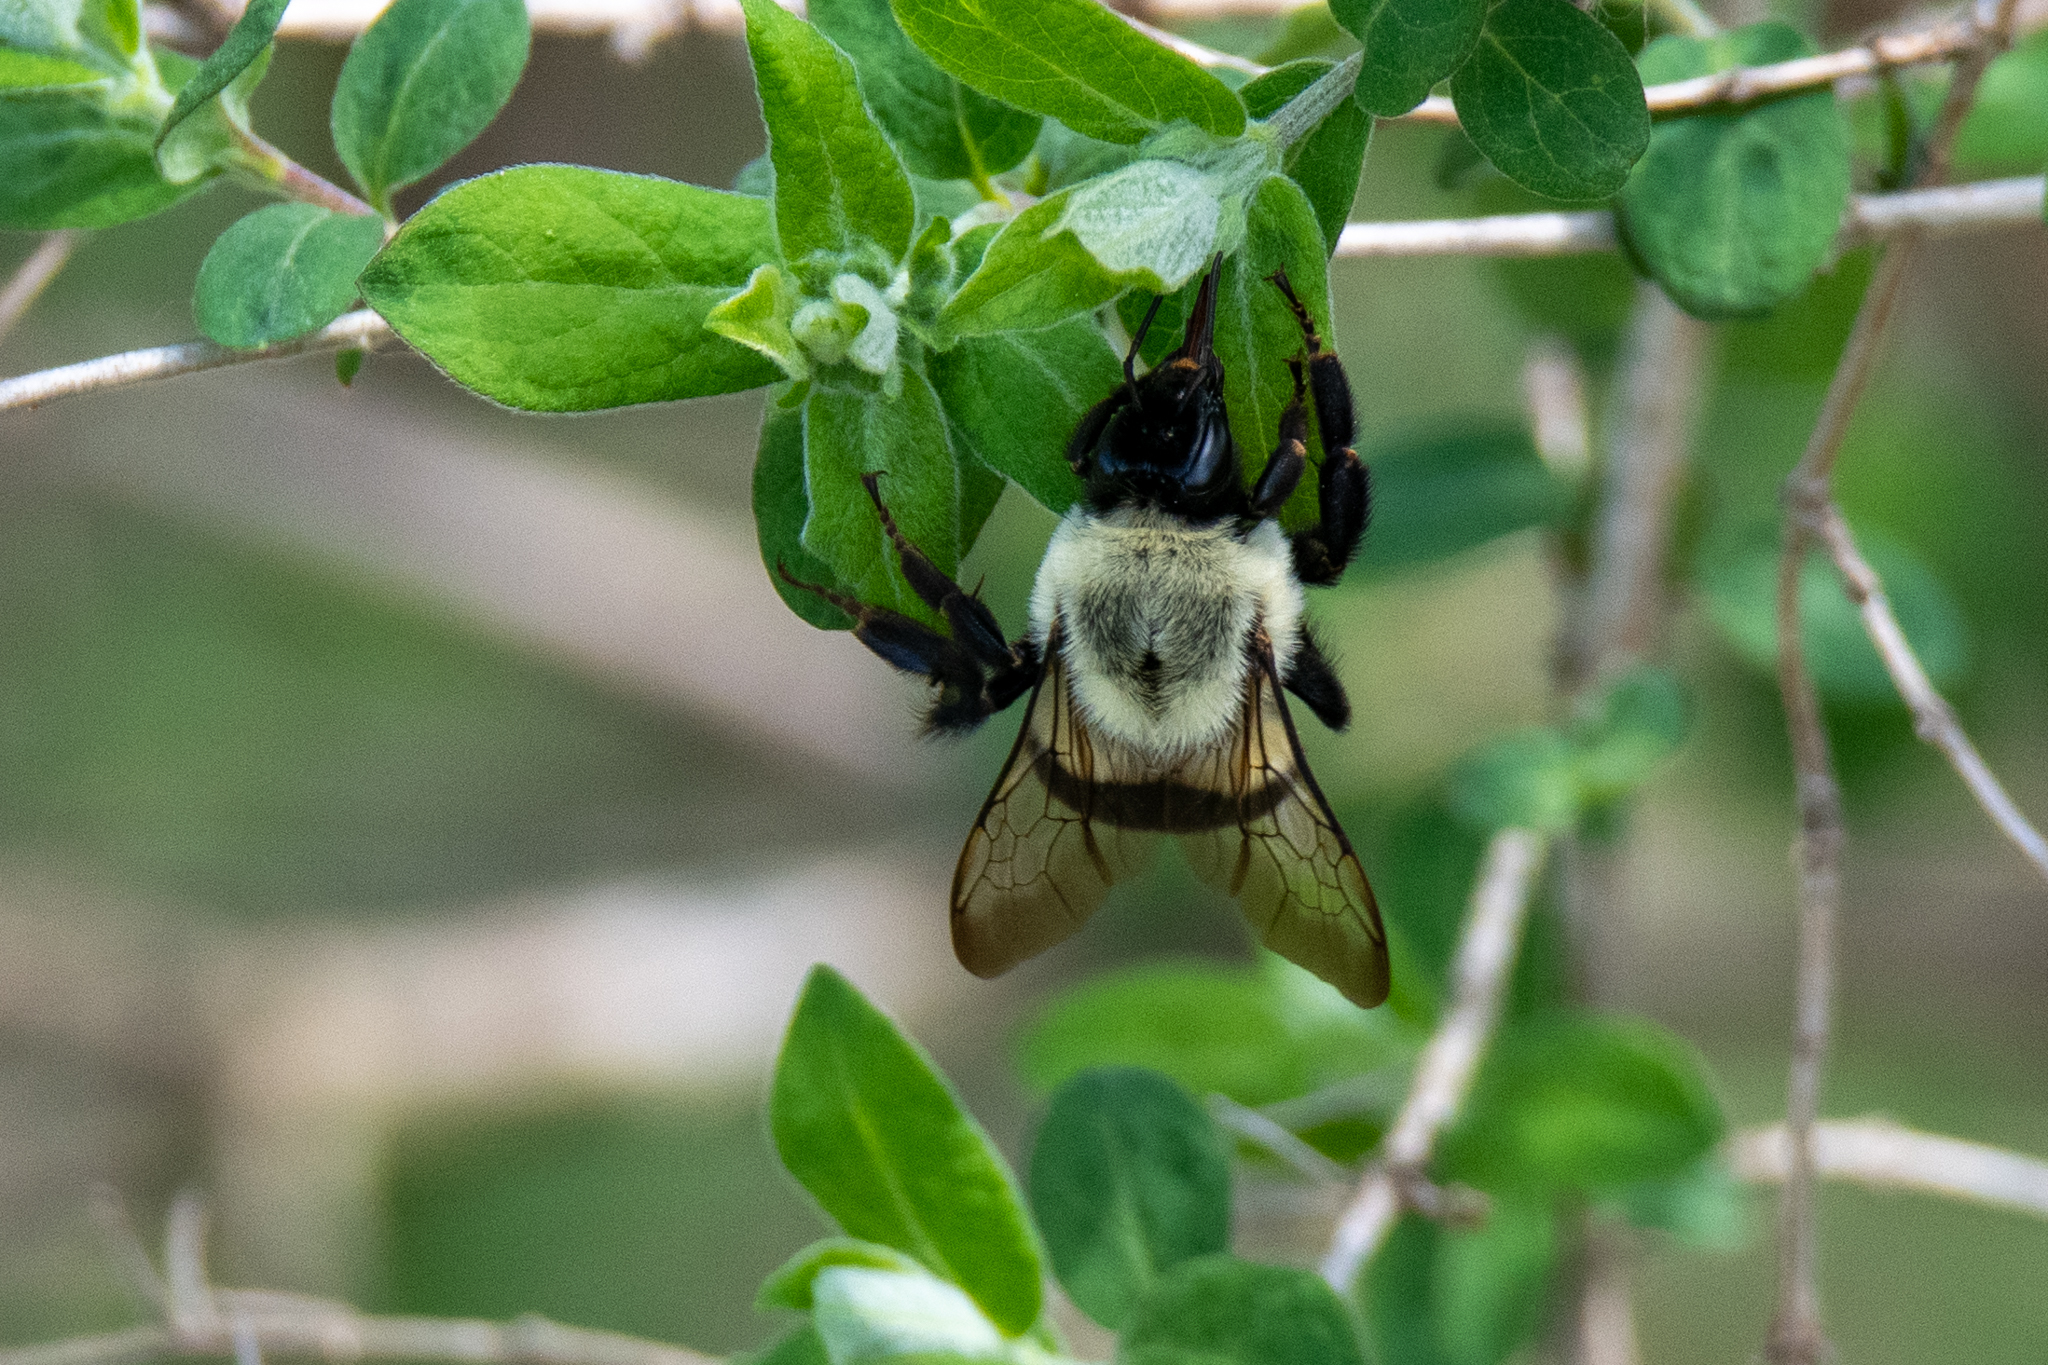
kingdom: Animalia
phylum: Arthropoda
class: Insecta
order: Hymenoptera
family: Apidae
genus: Bombus
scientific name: Bombus impatiens
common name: Common eastern bumble bee
